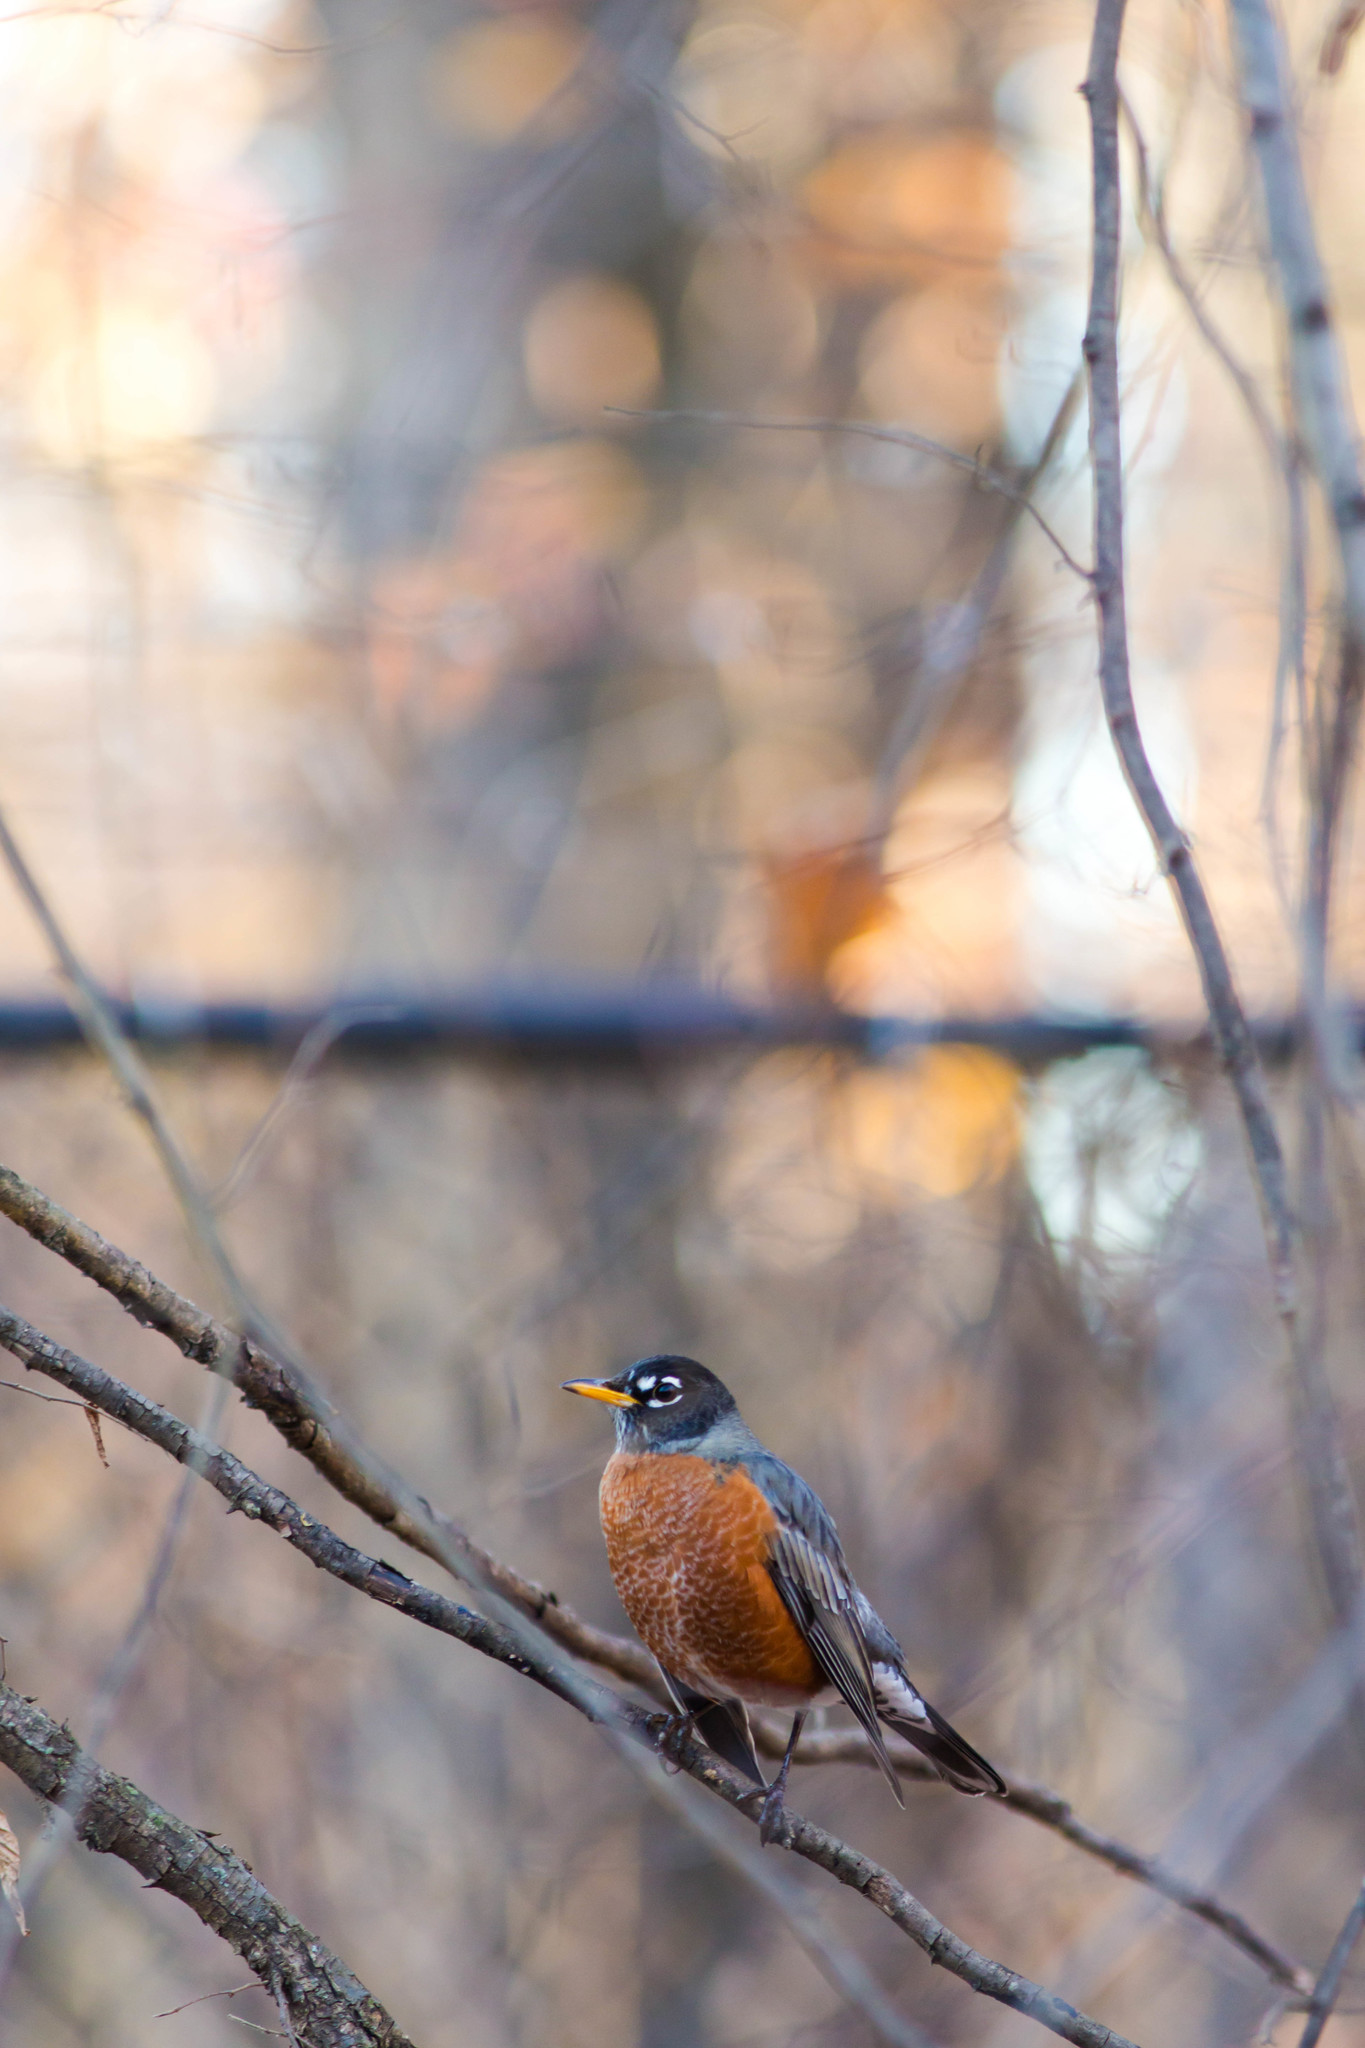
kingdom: Animalia
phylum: Chordata
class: Aves
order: Passeriformes
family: Turdidae
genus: Turdus
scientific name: Turdus migratorius
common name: American robin
